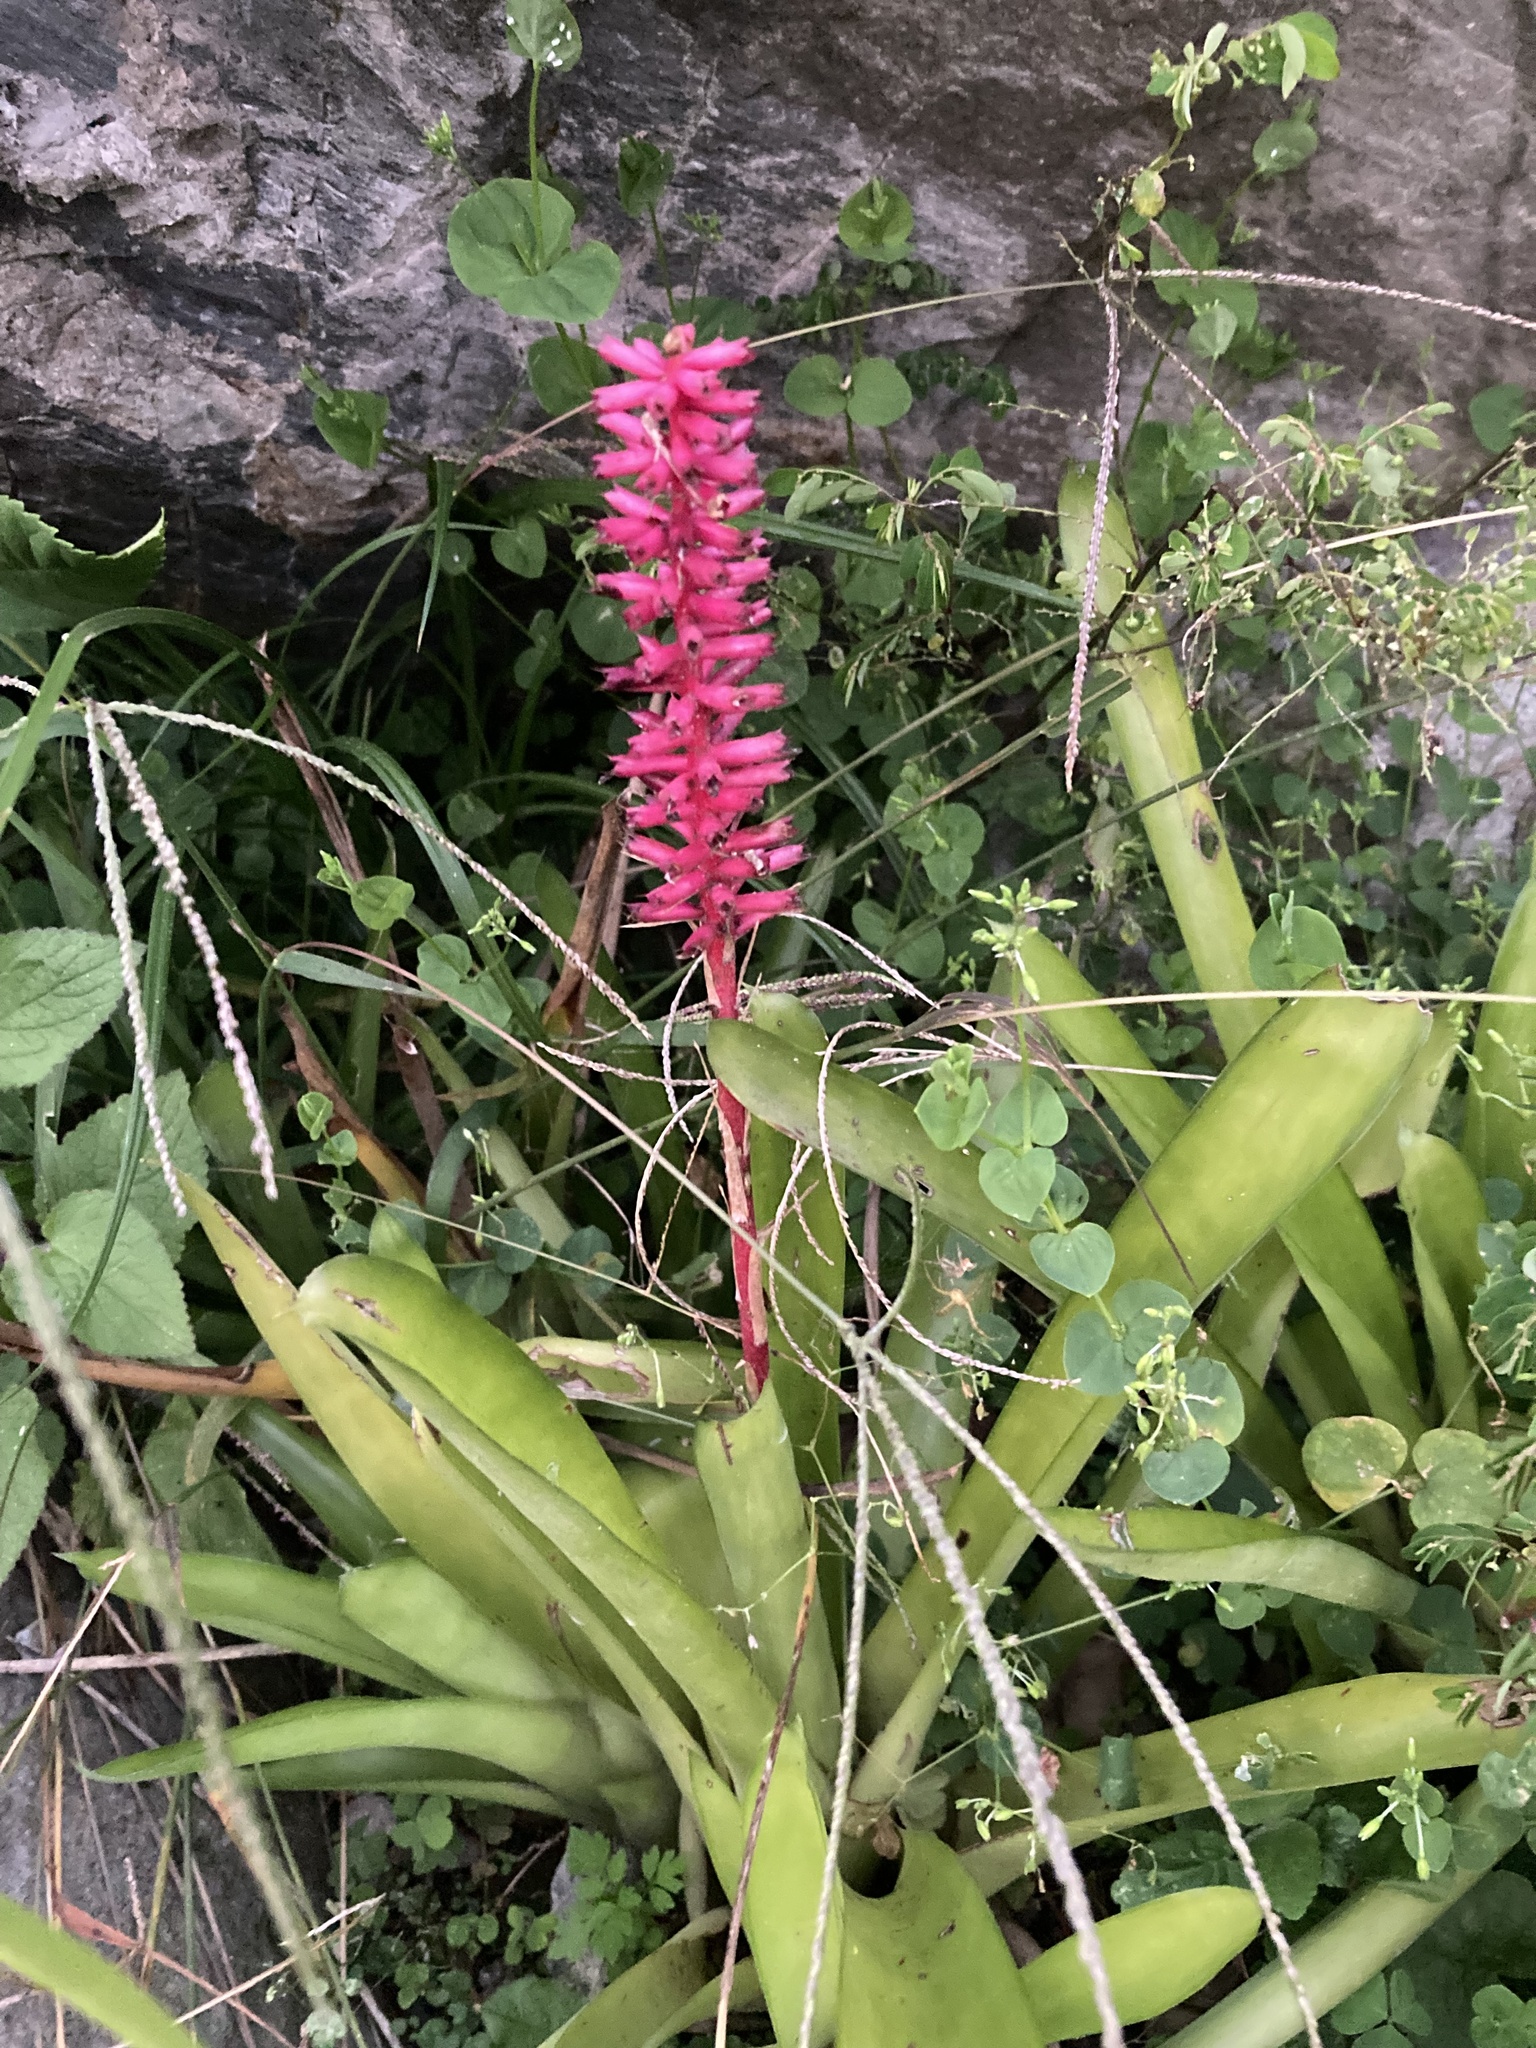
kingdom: Plantae
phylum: Tracheophyta
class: Liliopsida
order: Poales
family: Bromeliaceae
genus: Aechmea
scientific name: Aechmea gamosepala
